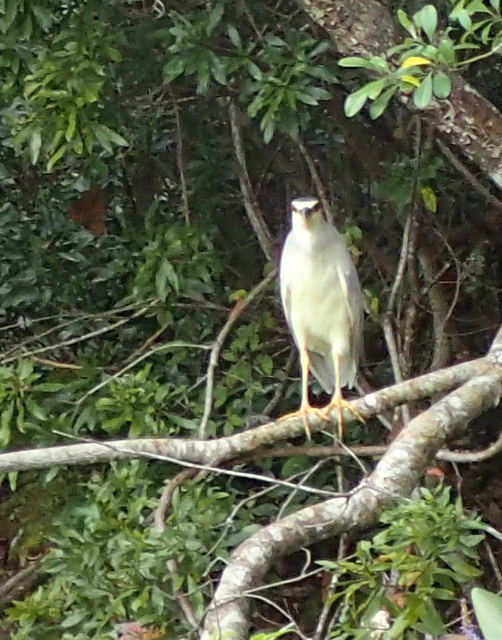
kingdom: Animalia
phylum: Chordata
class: Aves
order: Pelecaniformes
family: Ardeidae
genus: Nycticorax
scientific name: Nycticorax nycticorax
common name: Black-crowned night heron
